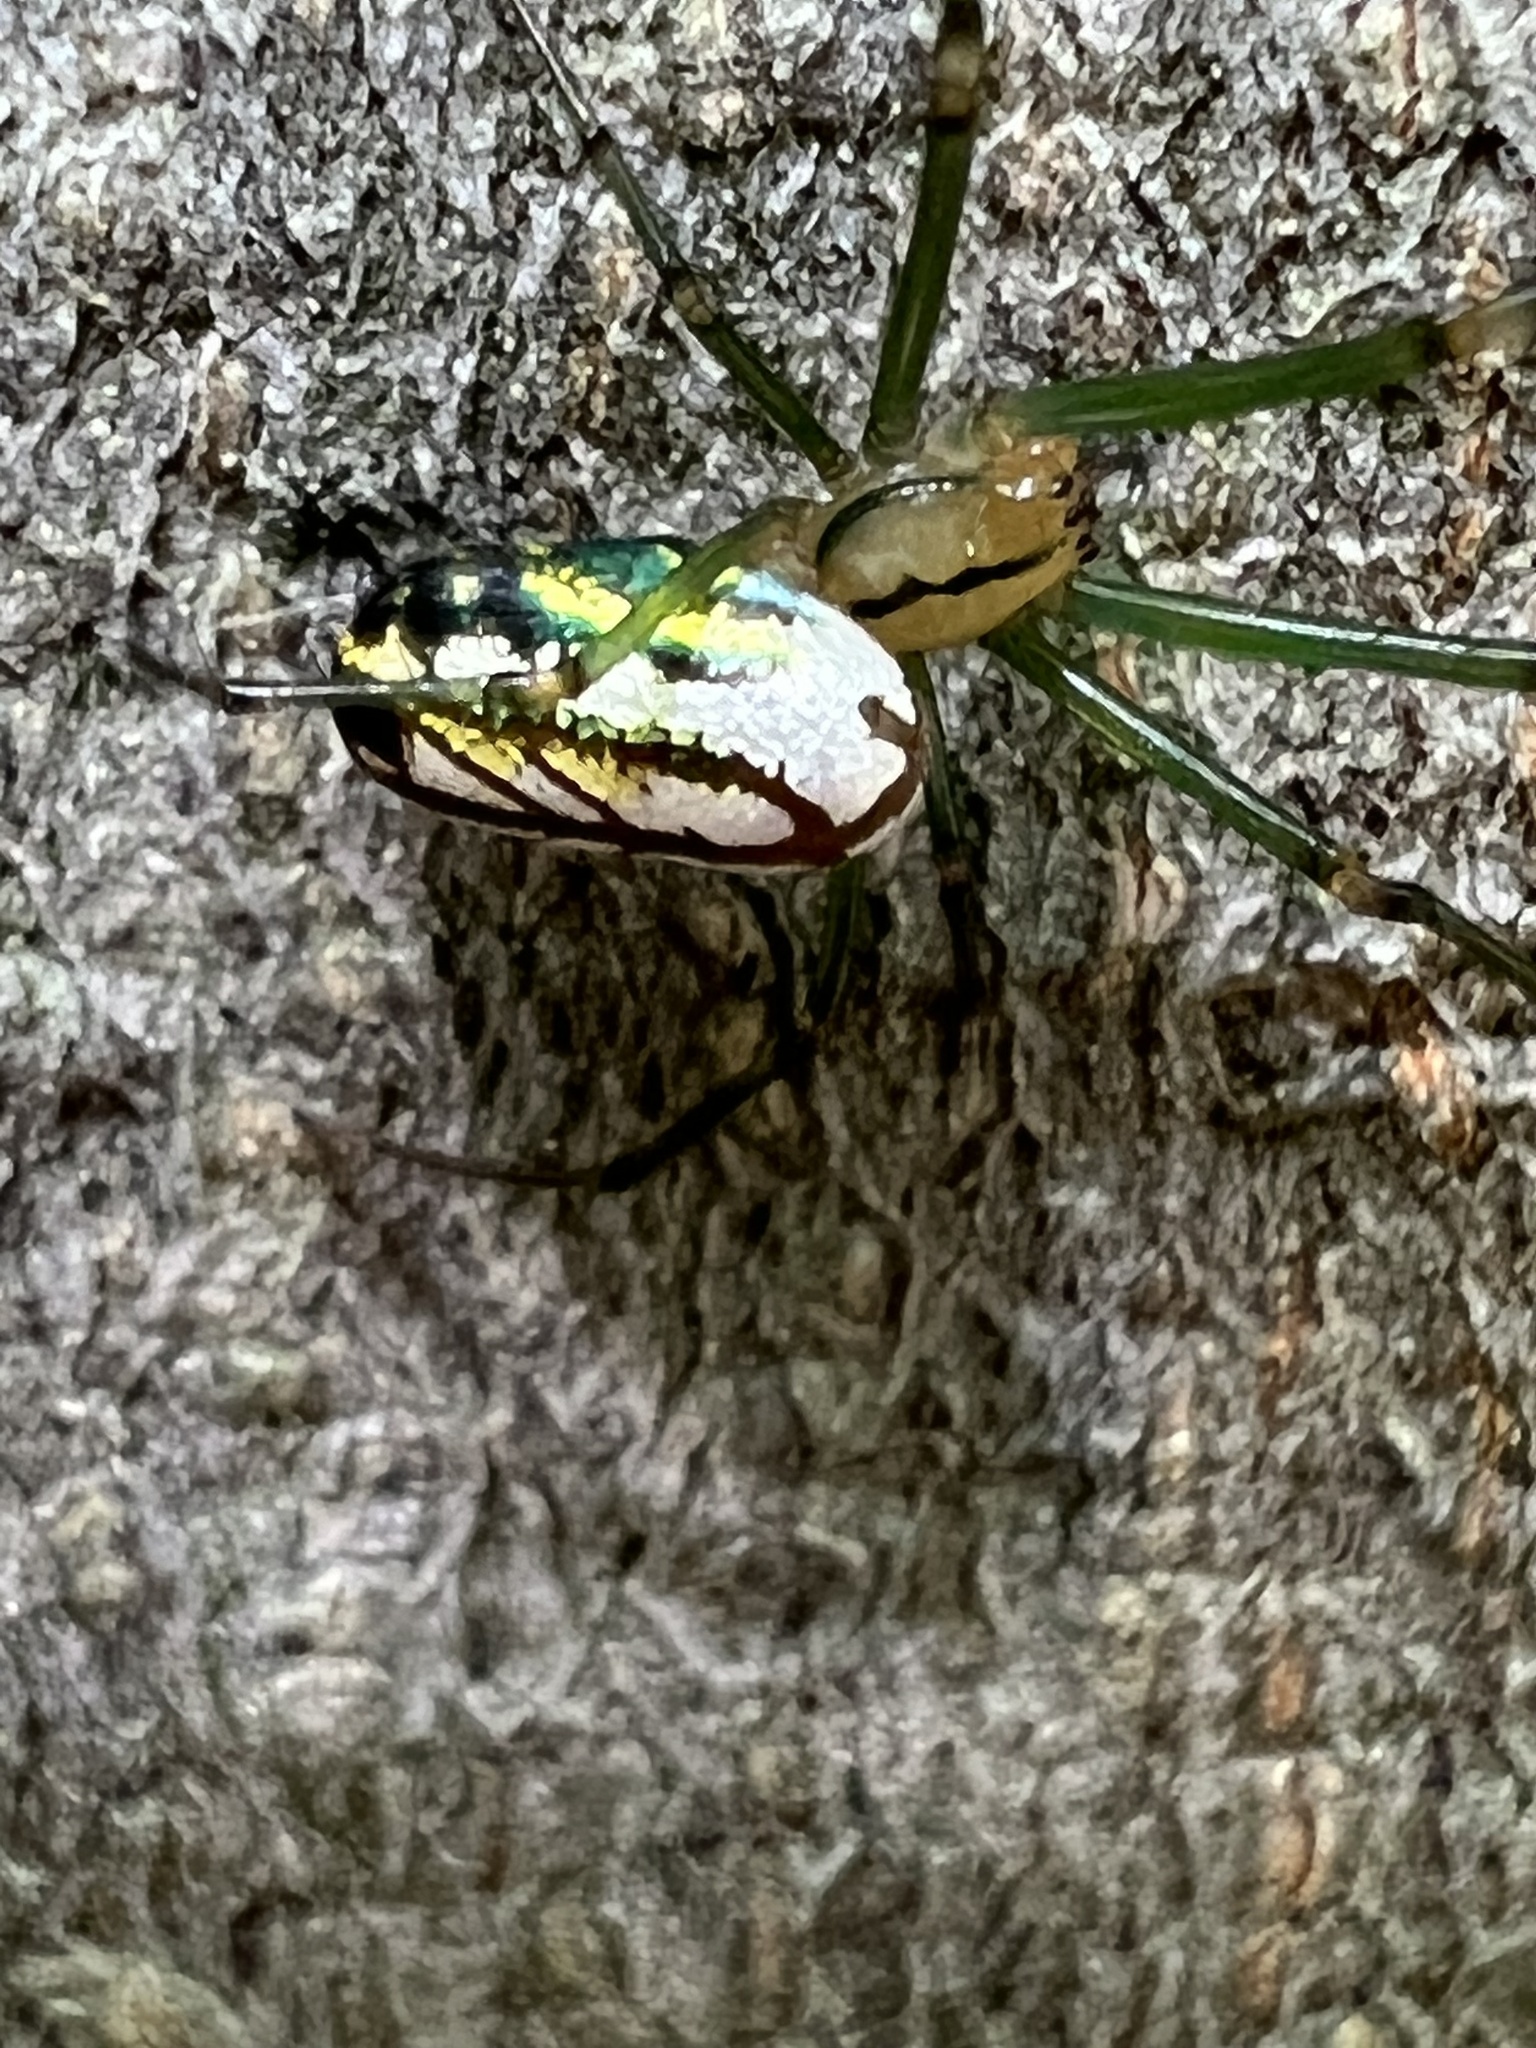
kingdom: Animalia
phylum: Arthropoda
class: Arachnida
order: Araneae
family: Tetragnathidae
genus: Leucauge
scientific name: Leucauge venusta
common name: Longjawed orb weavers
